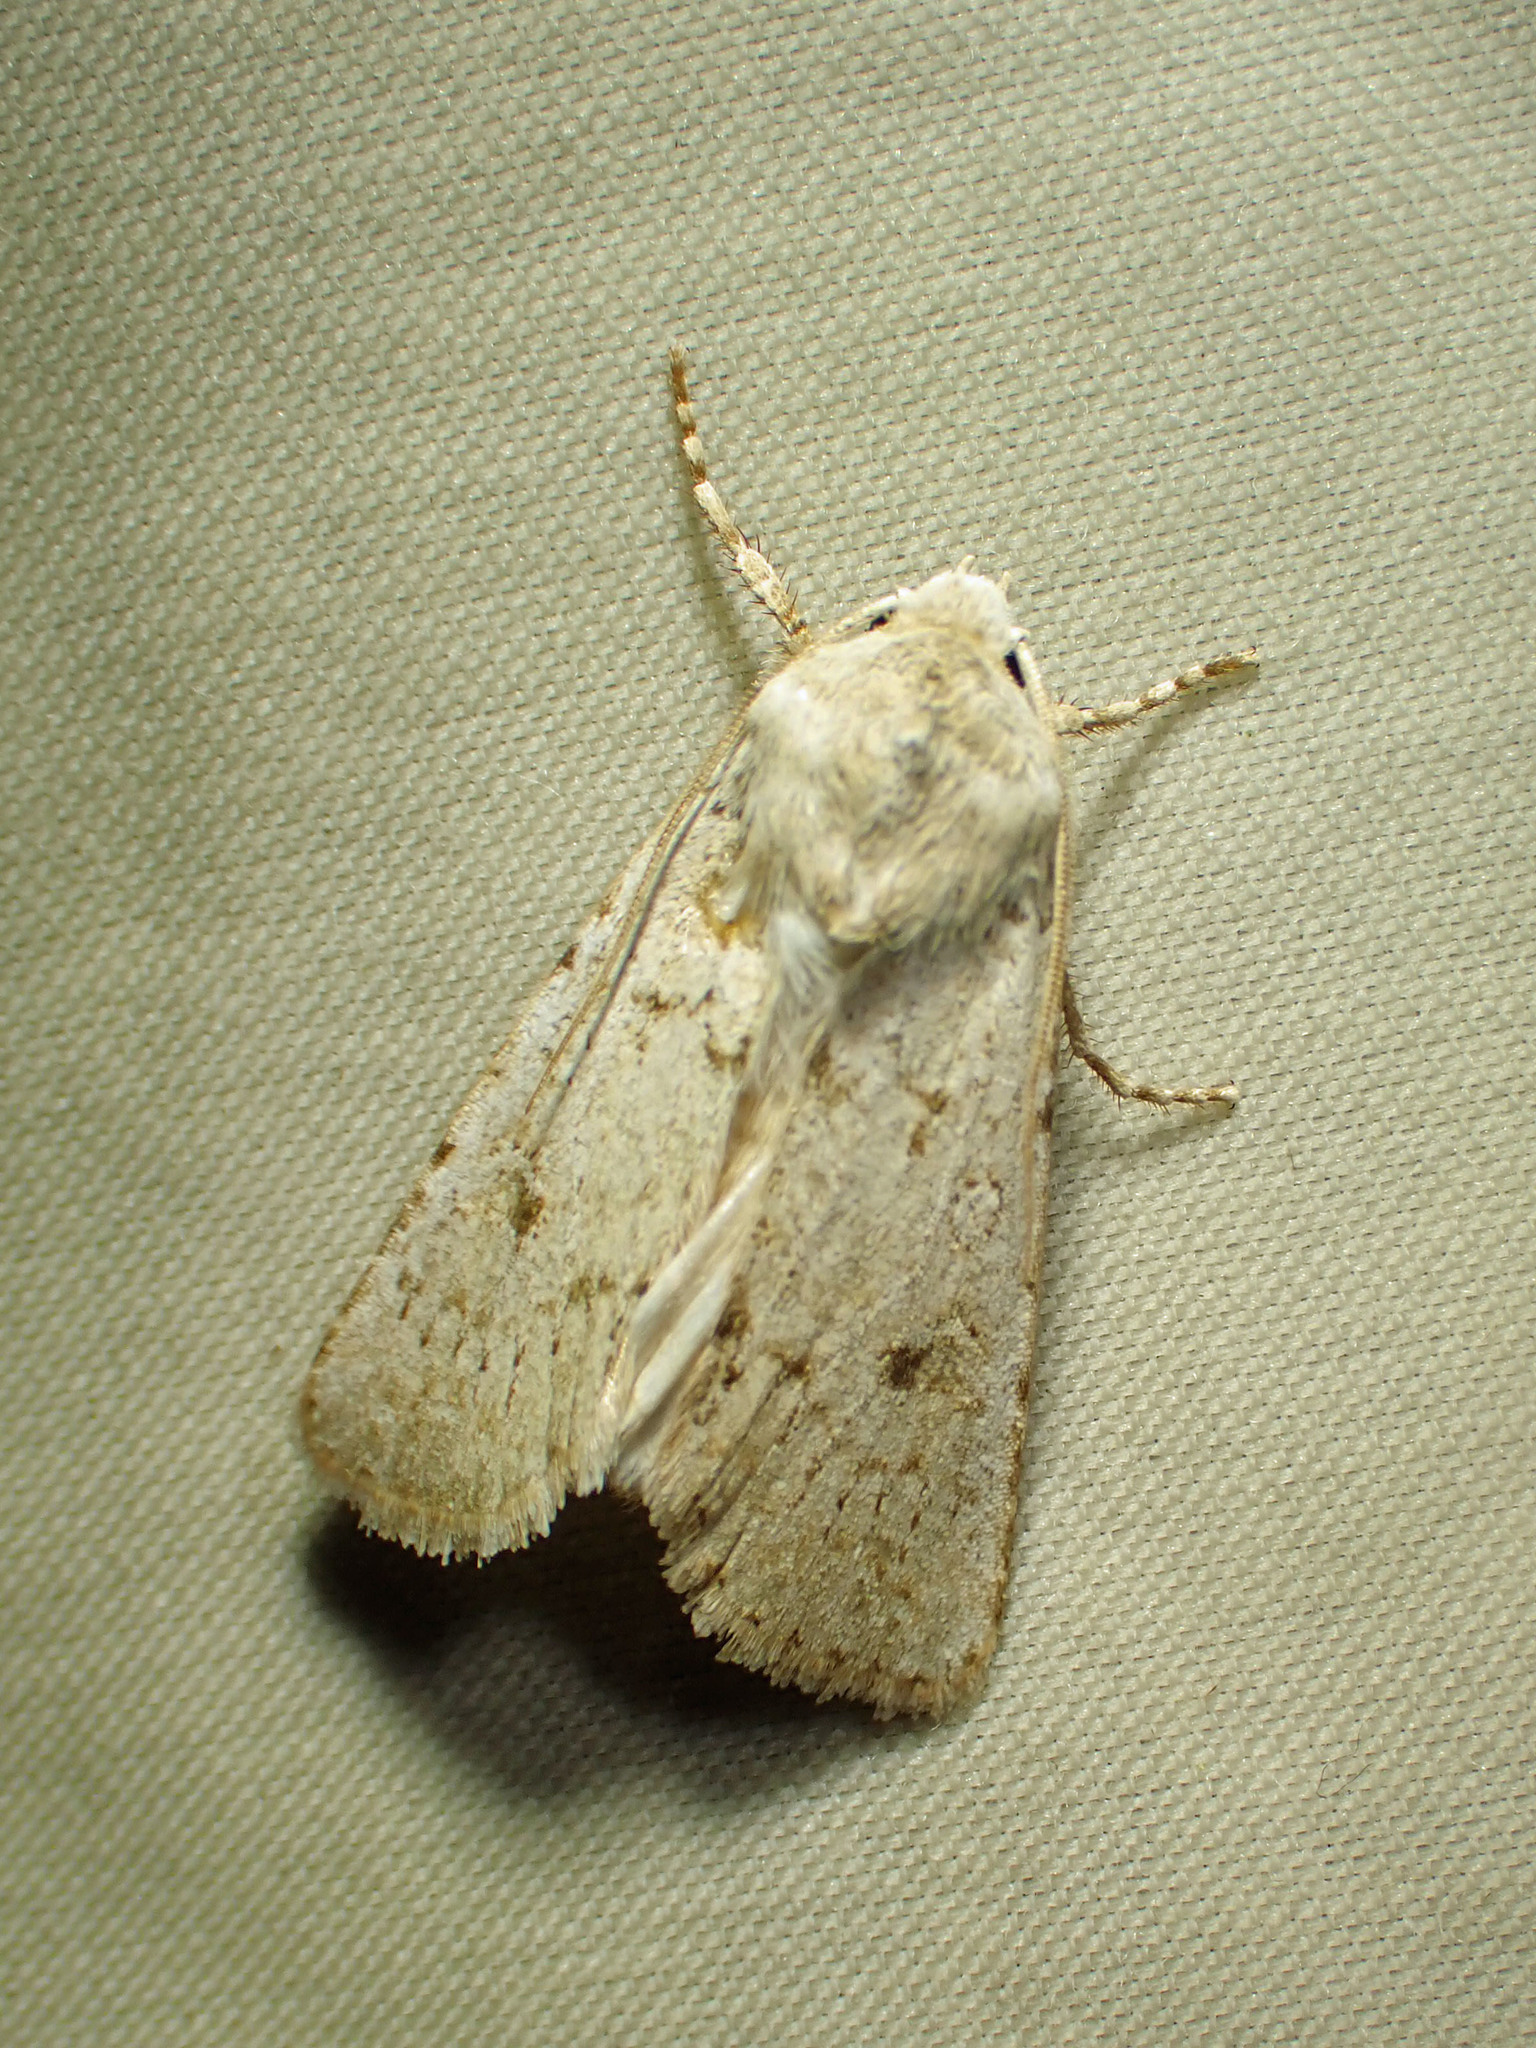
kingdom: Animalia
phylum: Arthropoda
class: Insecta
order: Lepidoptera
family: Noctuidae
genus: Euxoa
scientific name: Euxoa scandens
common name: White cutworm
